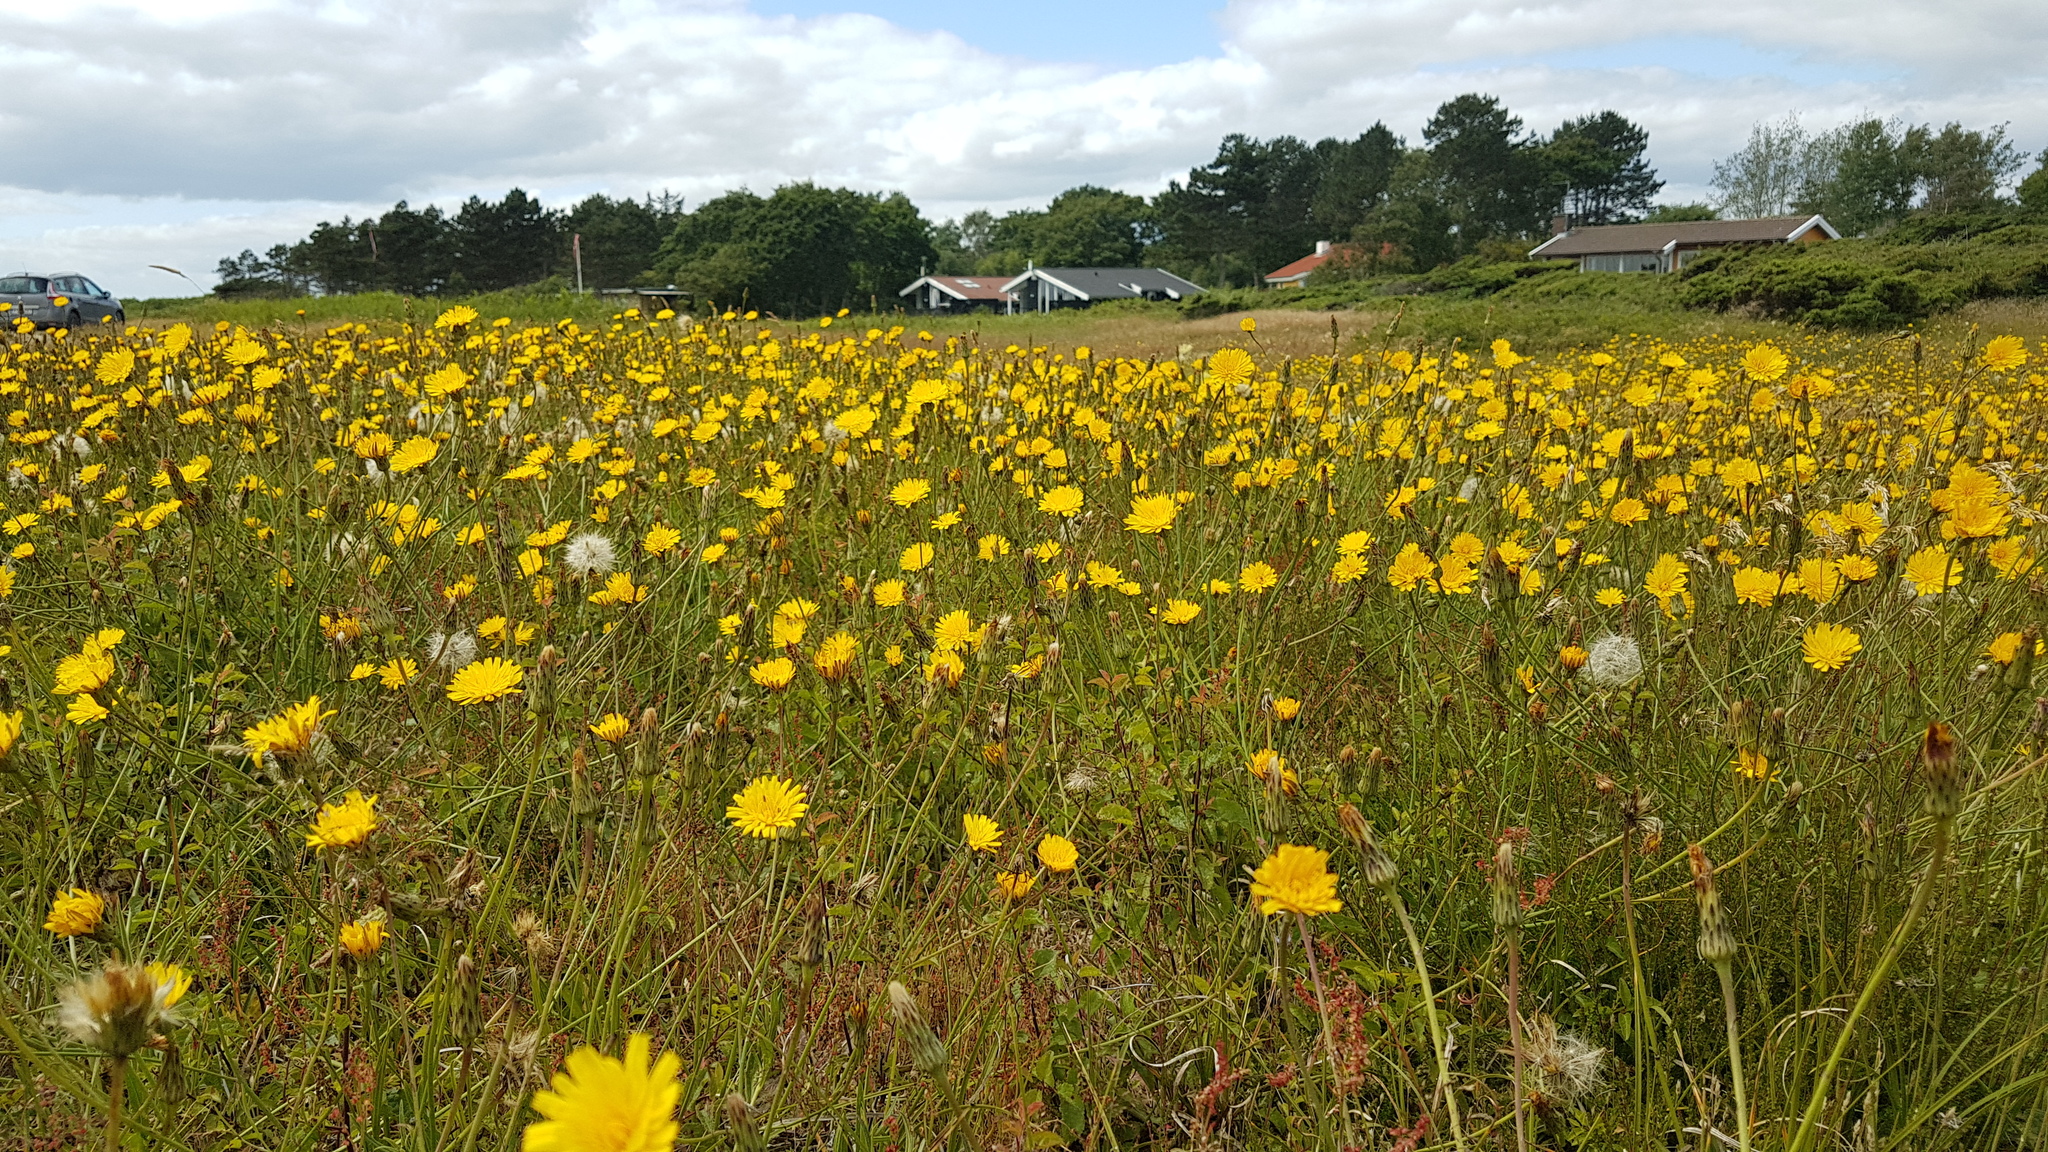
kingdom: Plantae
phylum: Tracheophyta
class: Magnoliopsida
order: Asterales
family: Asteraceae
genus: Hypochaeris
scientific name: Hypochaeris radicata
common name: Flatweed
